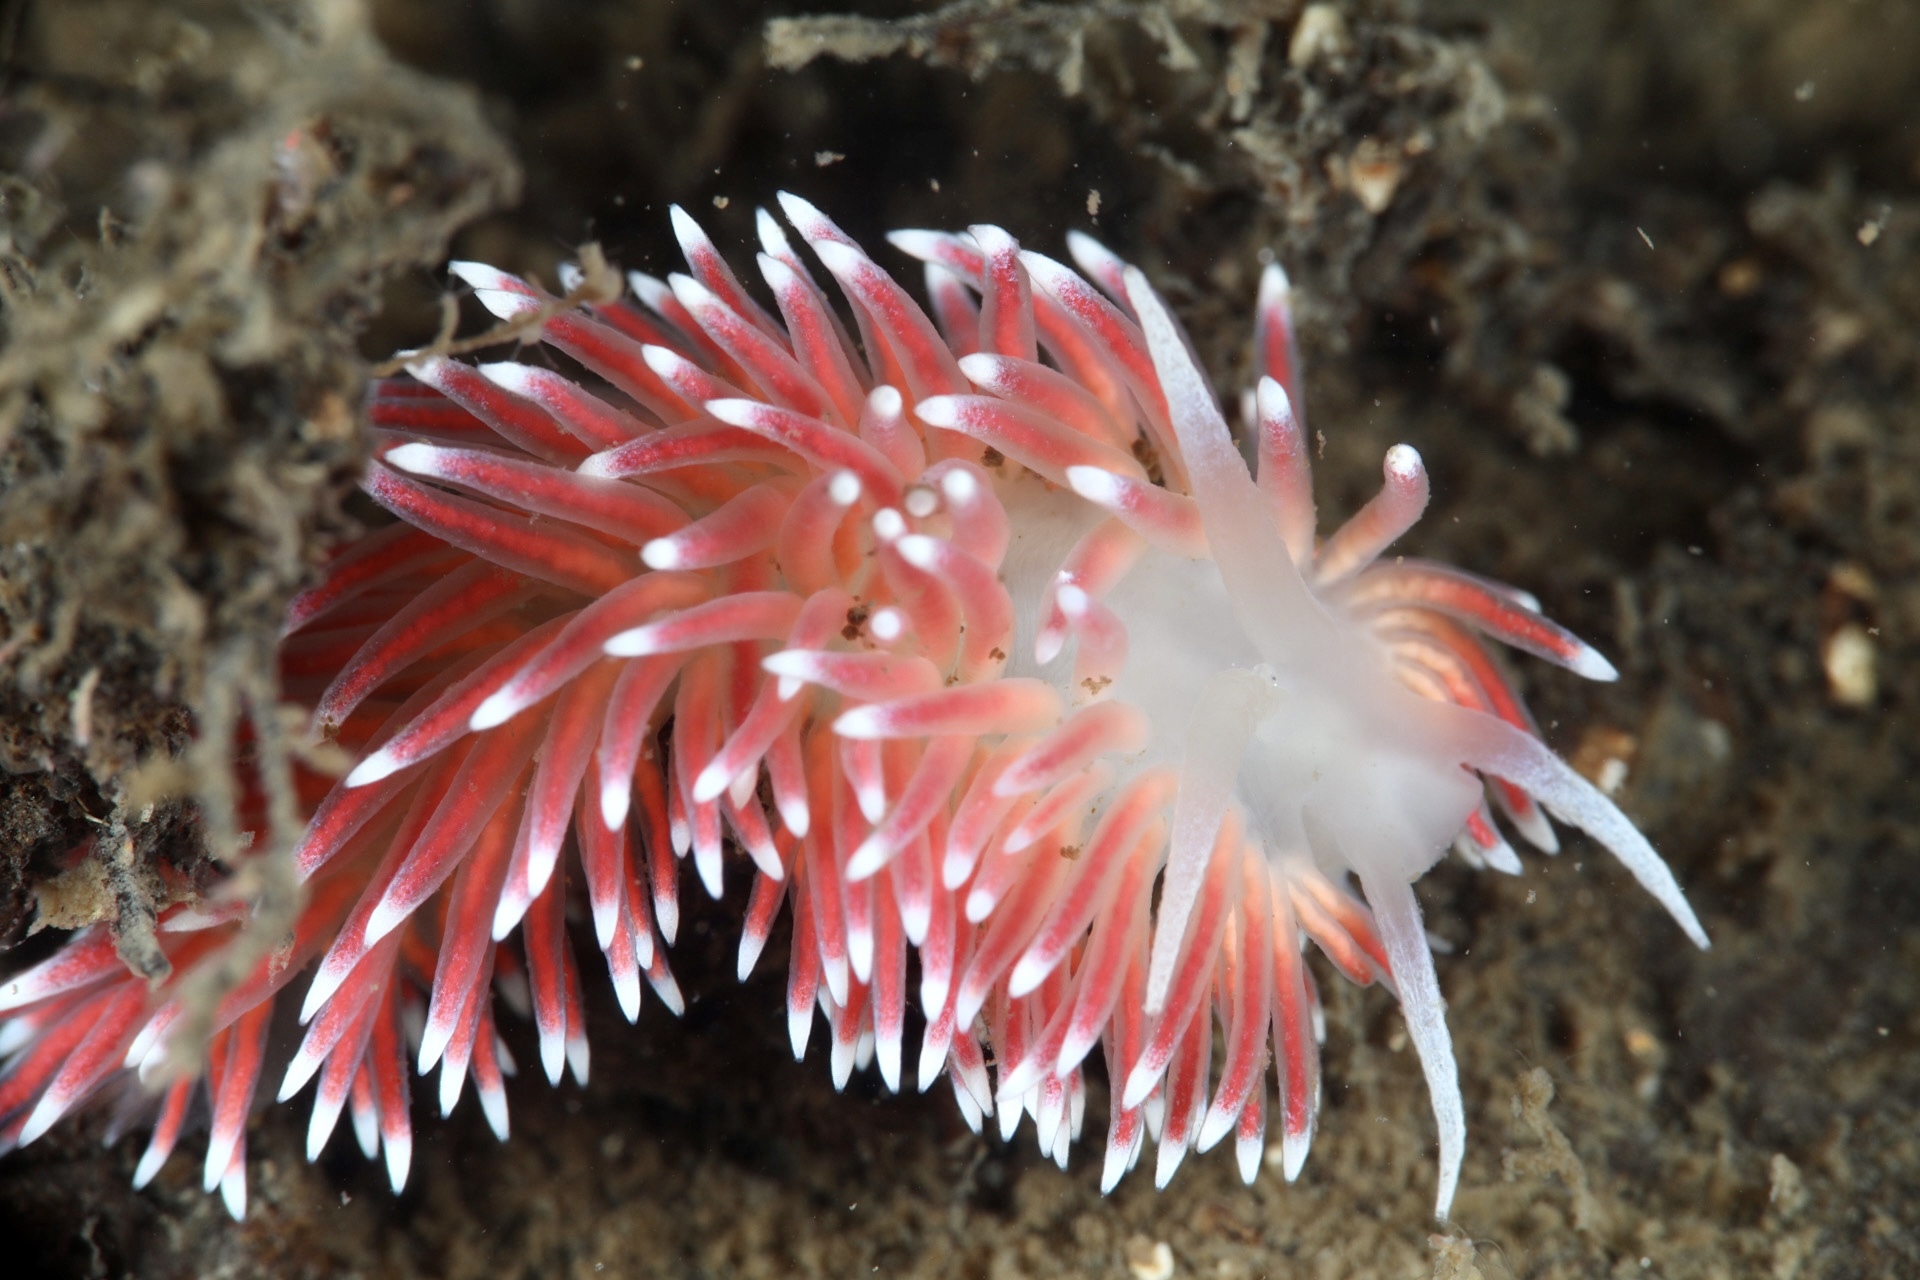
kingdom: Animalia
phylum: Mollusca
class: Gastropoda
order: Nudibranchia
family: Flabellinidae
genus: Carronella
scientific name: Carronella pellucida
